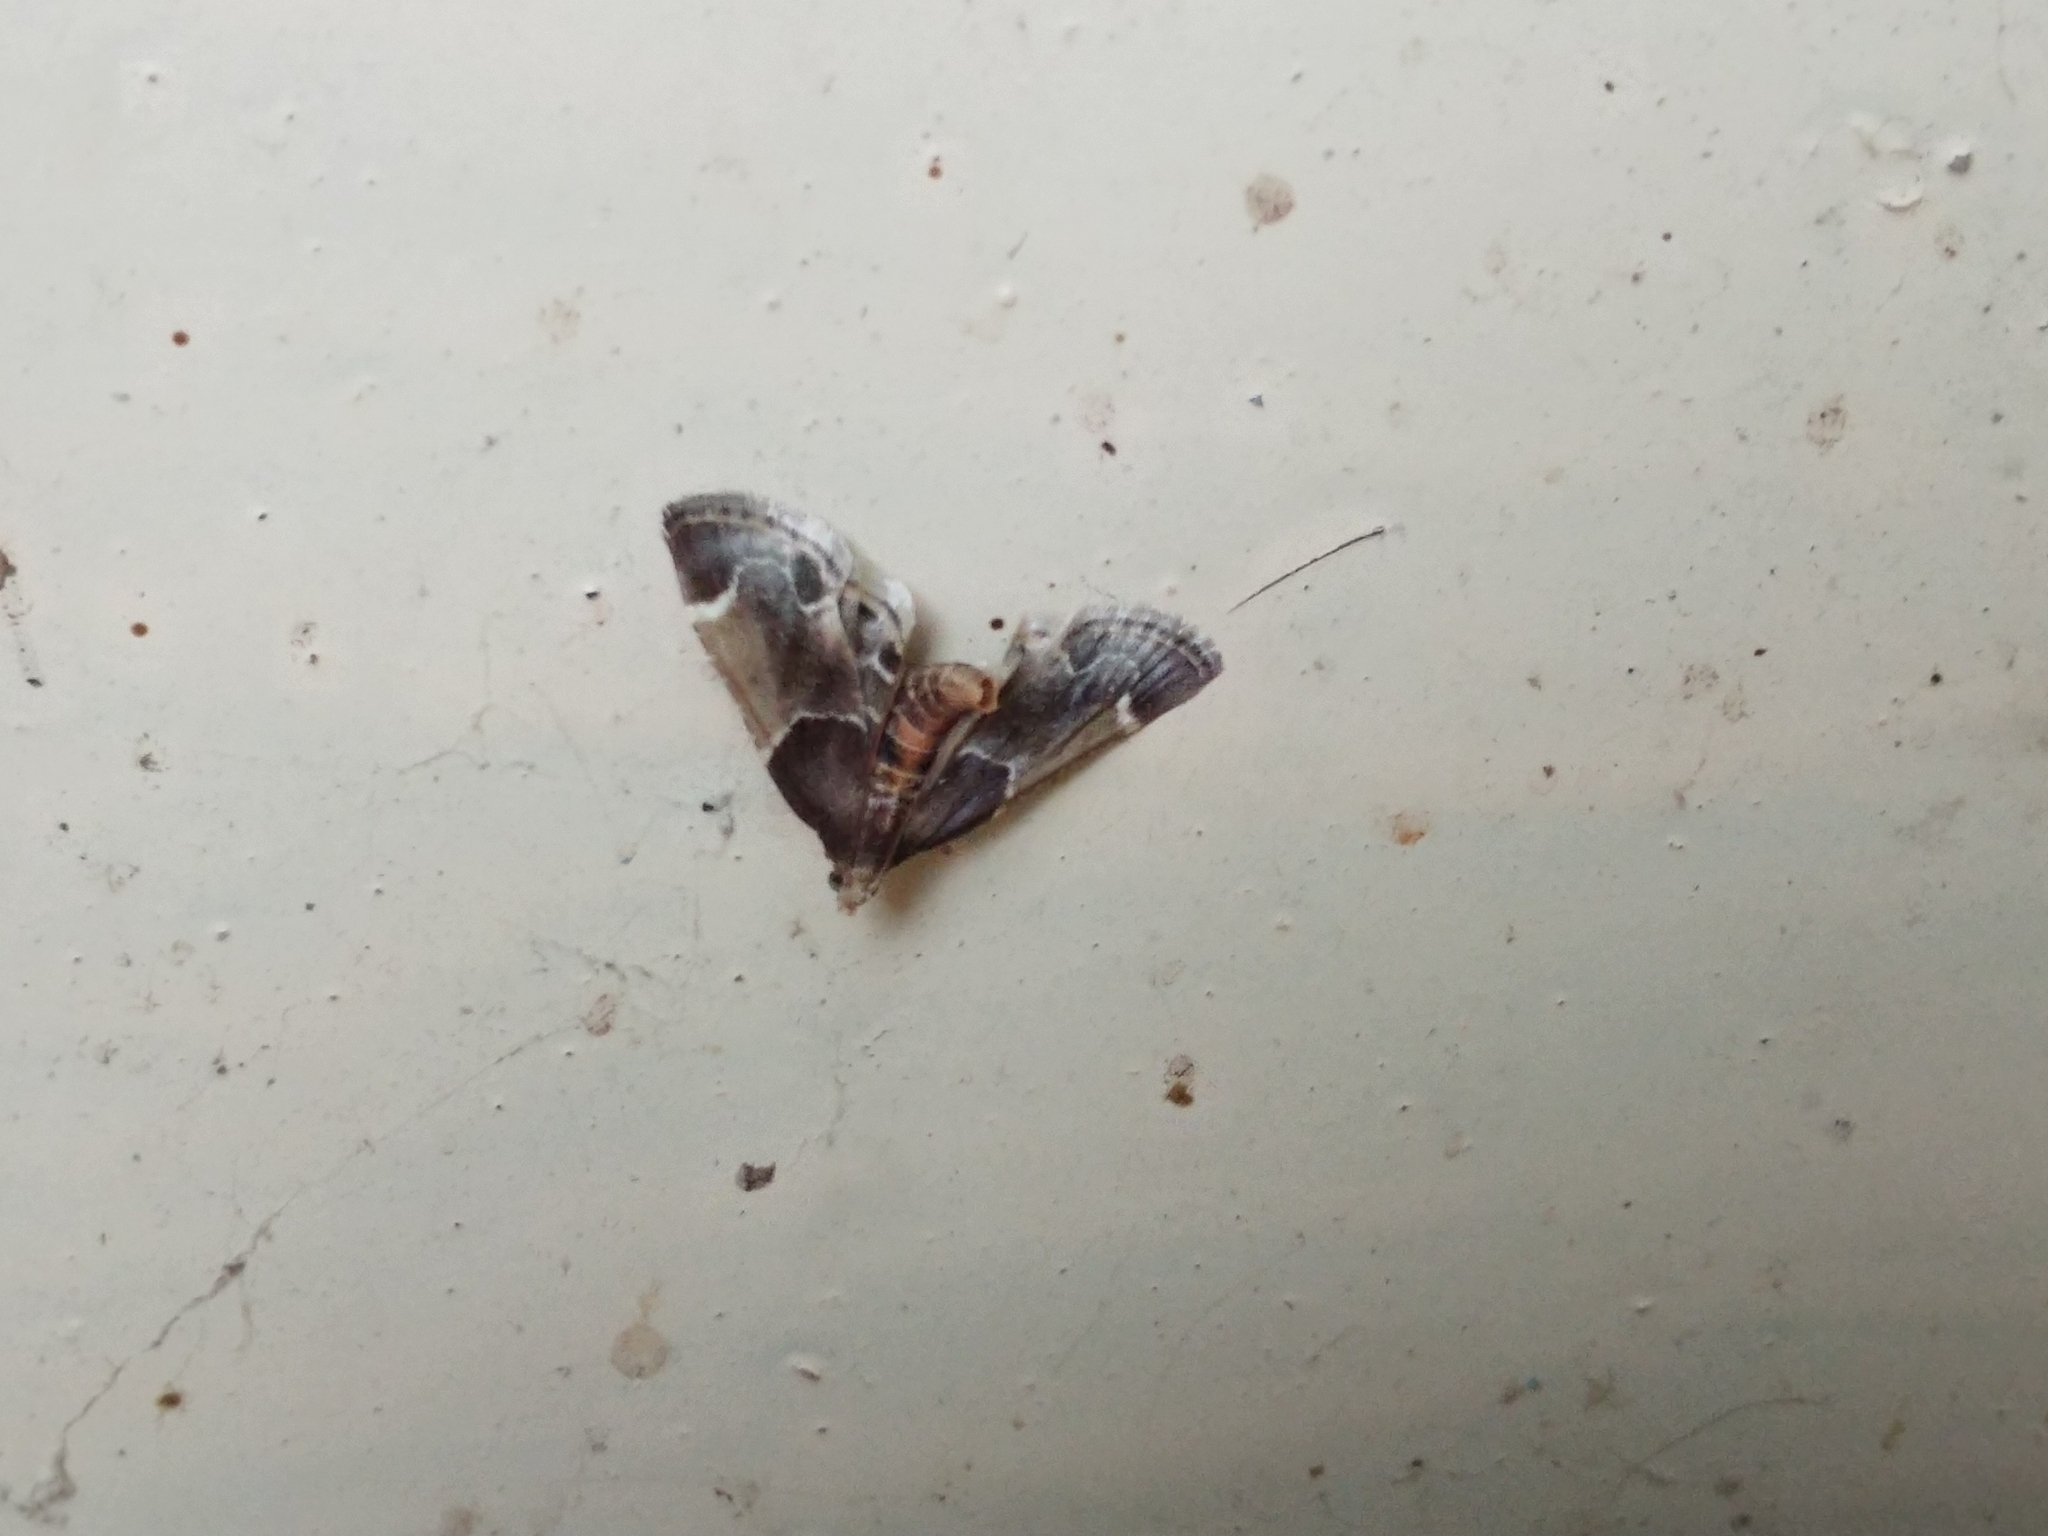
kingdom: Animalia
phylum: Arthropoda
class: Insecta
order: Lepidoptera
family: Pyralidae
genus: Pyralis
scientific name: Pyralis farinalis
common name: Meal moth
